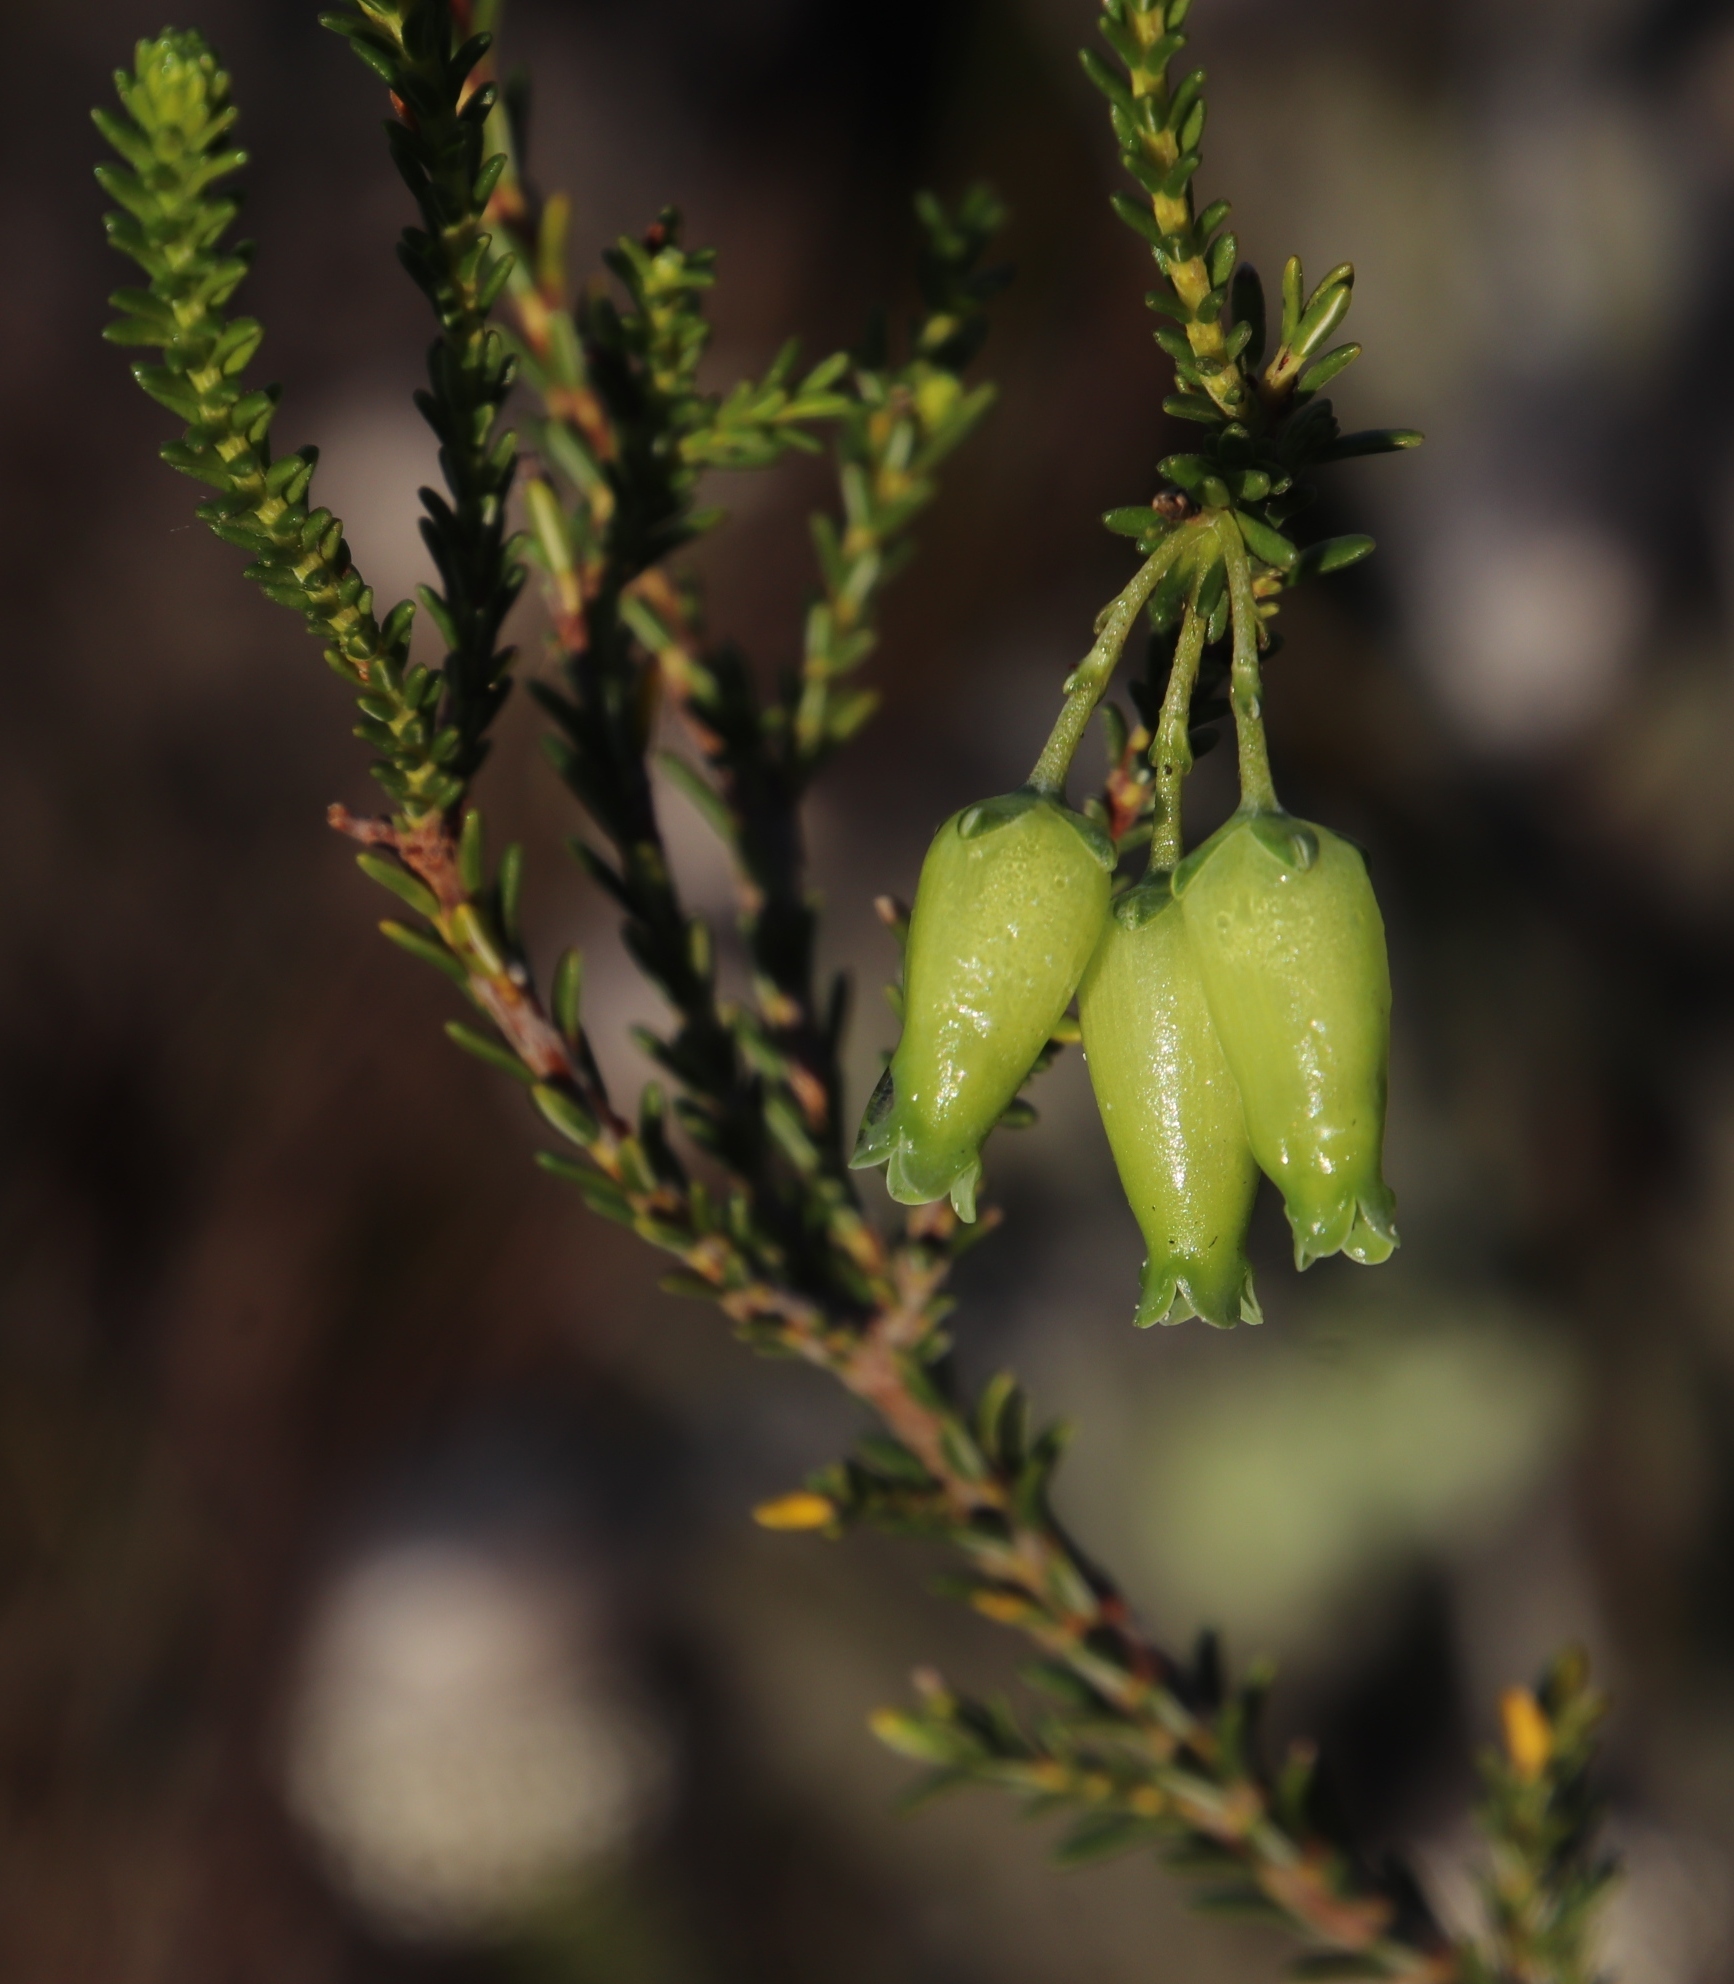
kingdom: Plantae
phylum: Tracheophyta
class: Magnoliopsida
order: Ericales
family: Ericaceae
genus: Erica
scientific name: Erica urna-viridis
